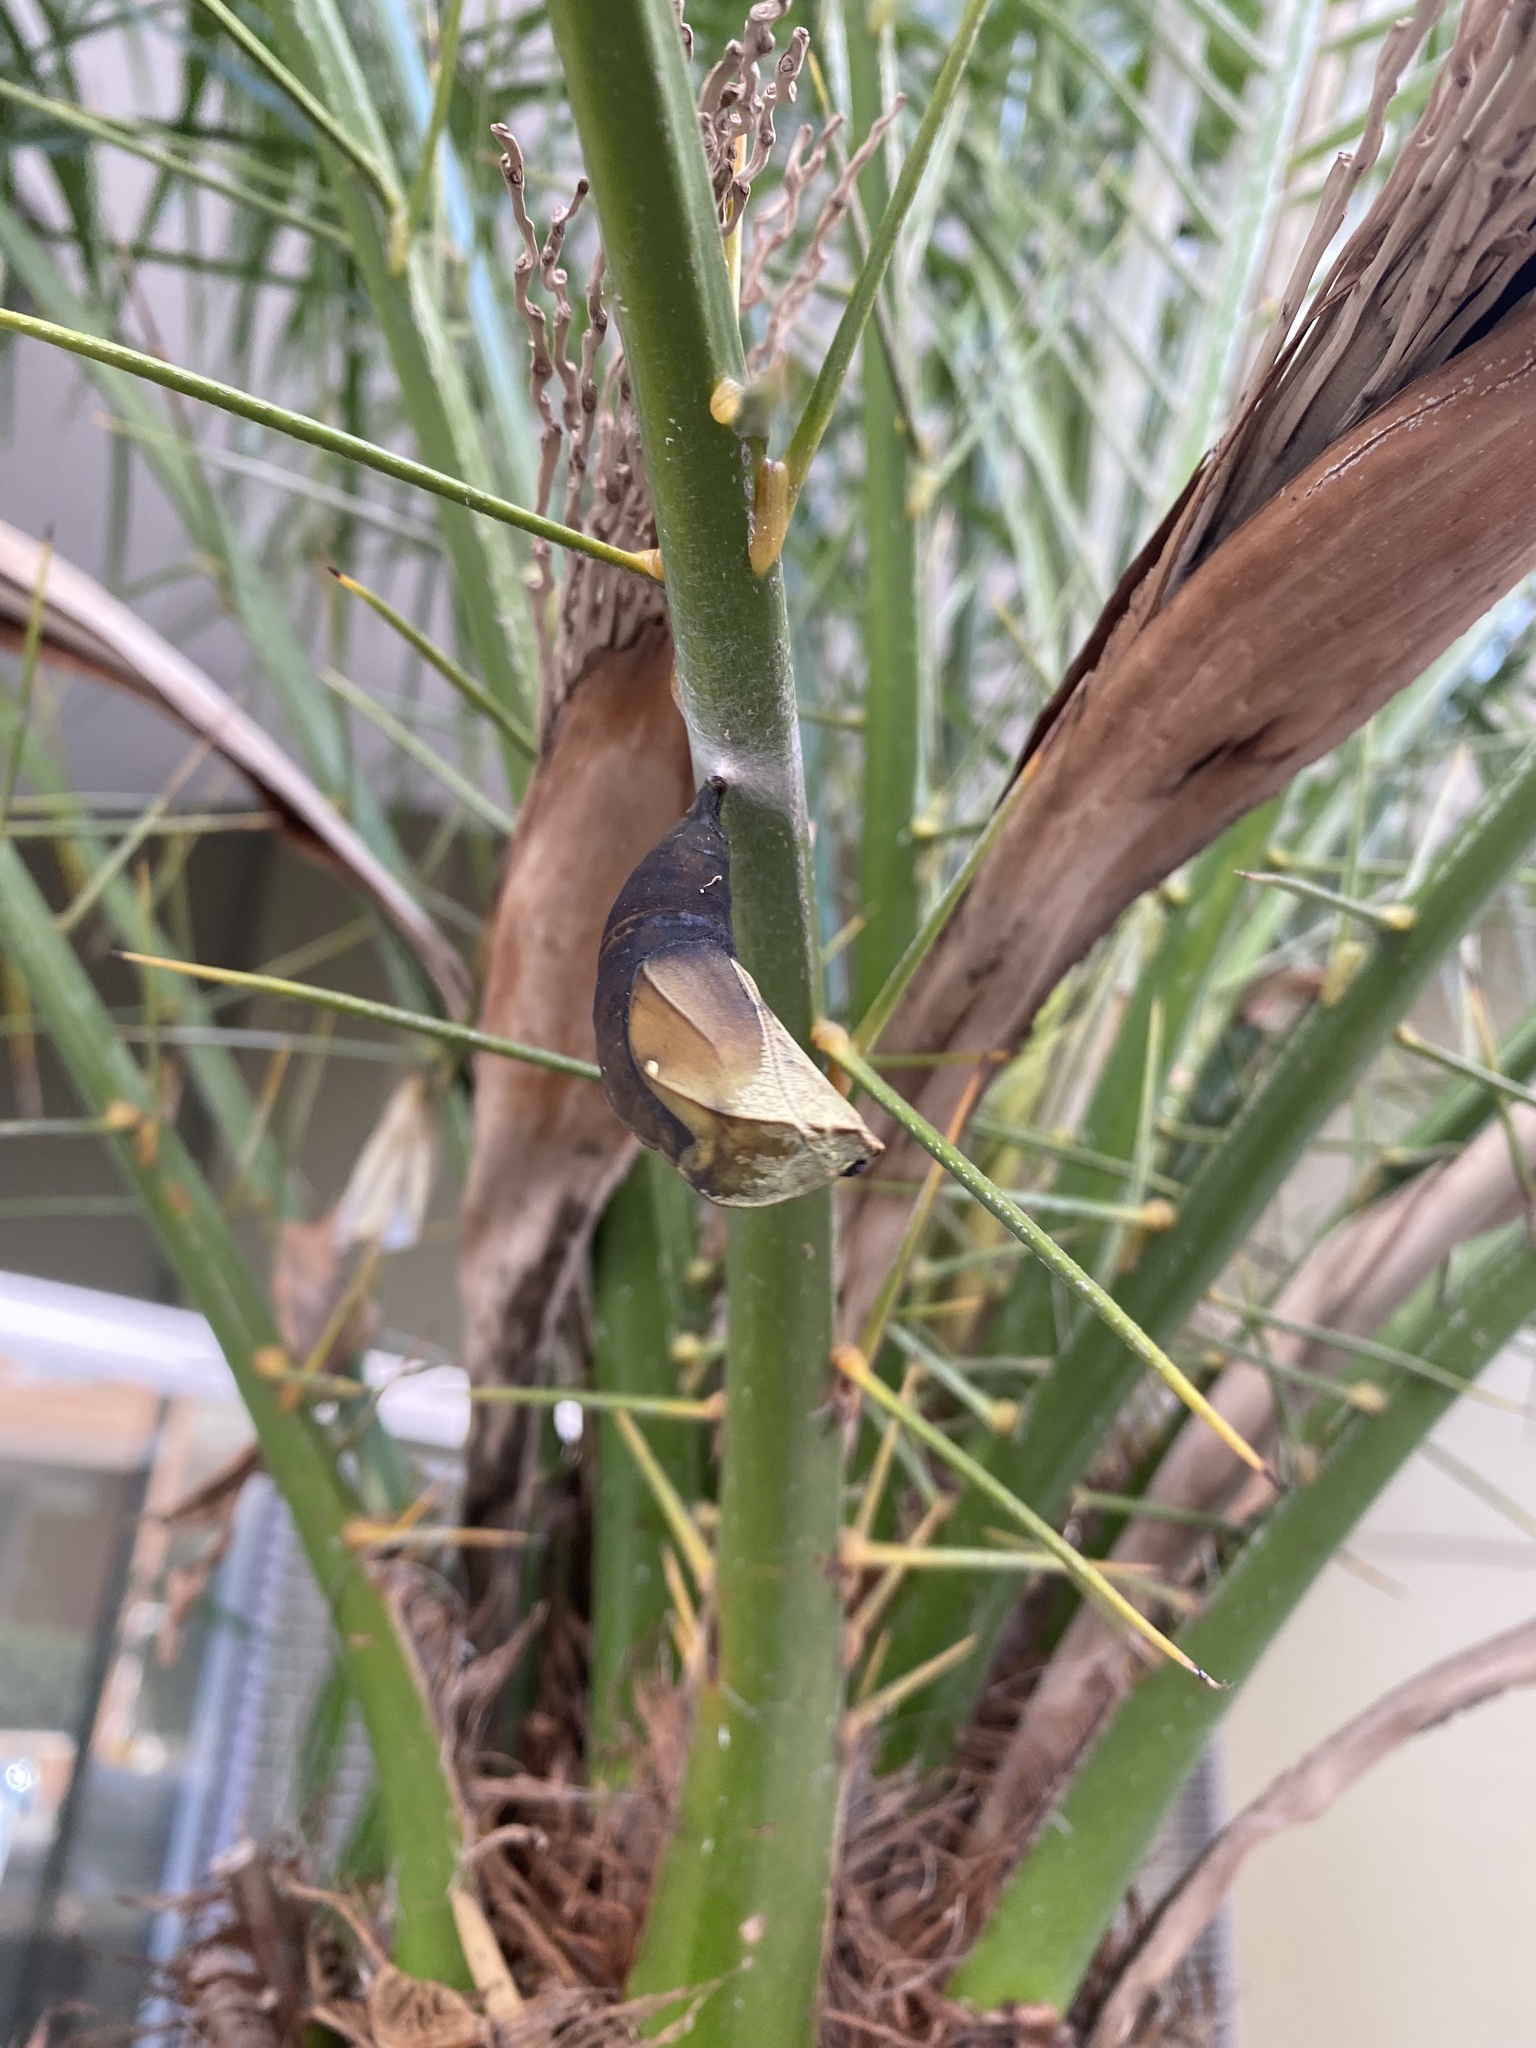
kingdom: Animalia
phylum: Arthropoda
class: Insecta
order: Lepidoptera
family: Nymphalidae
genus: Opsiphanes
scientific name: Opsiphanes invirae
